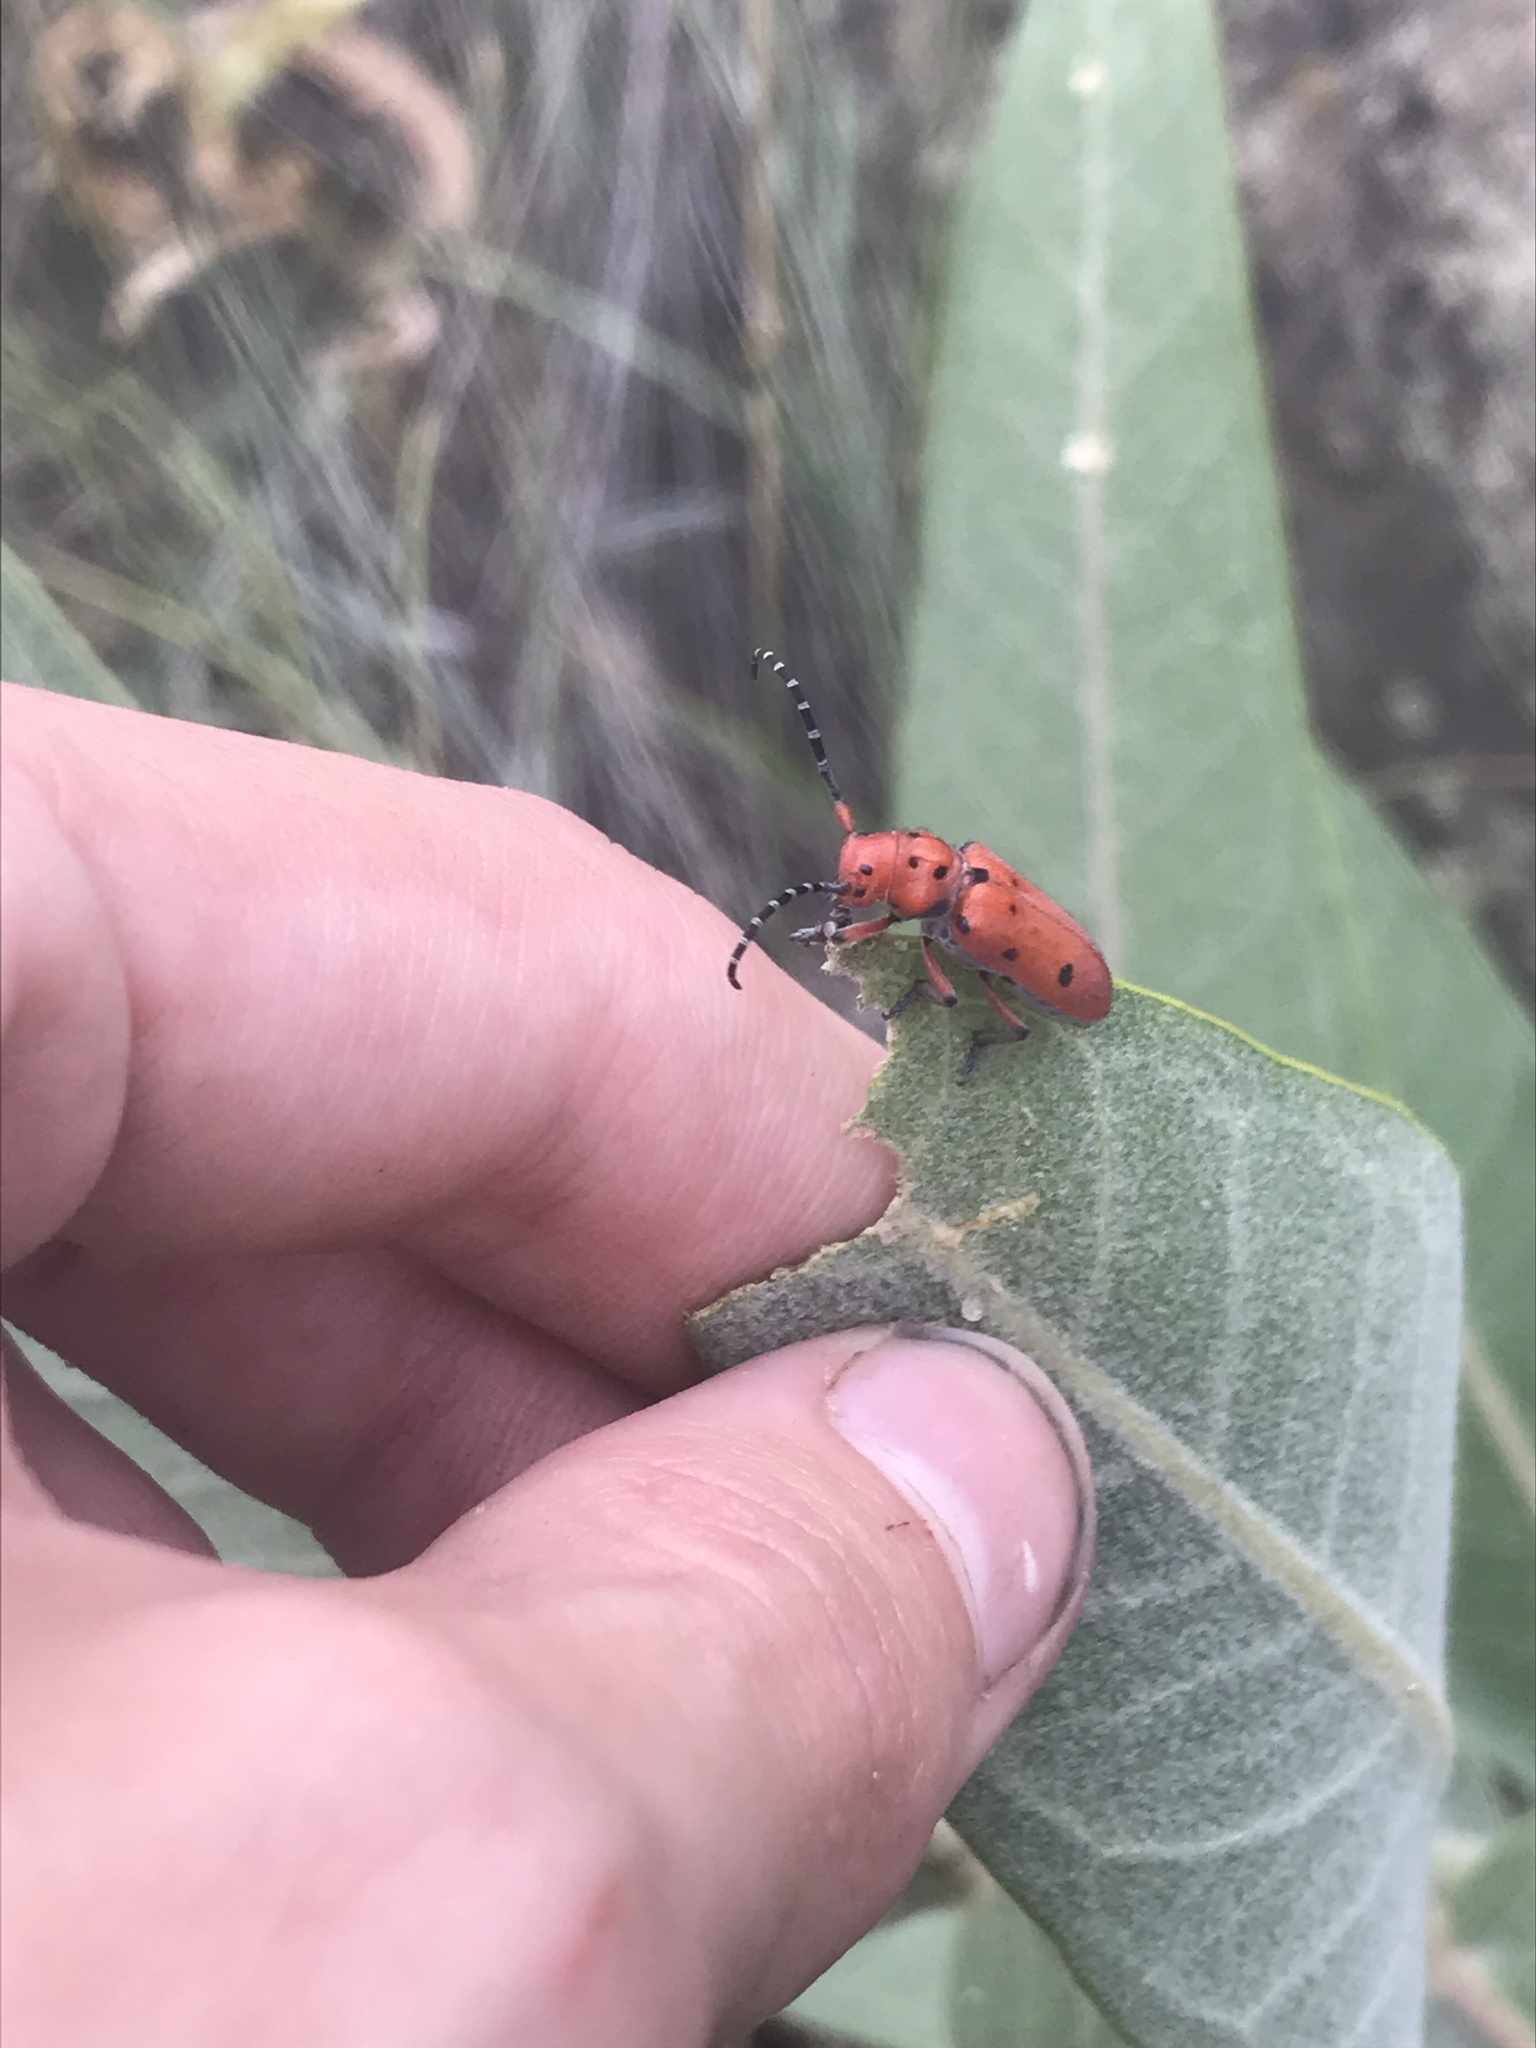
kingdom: Animalia
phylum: Arthropoda
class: Insecta
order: Coleoptera
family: Cerambycidae
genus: Tetraopes
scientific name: Tetraopes femoratus
